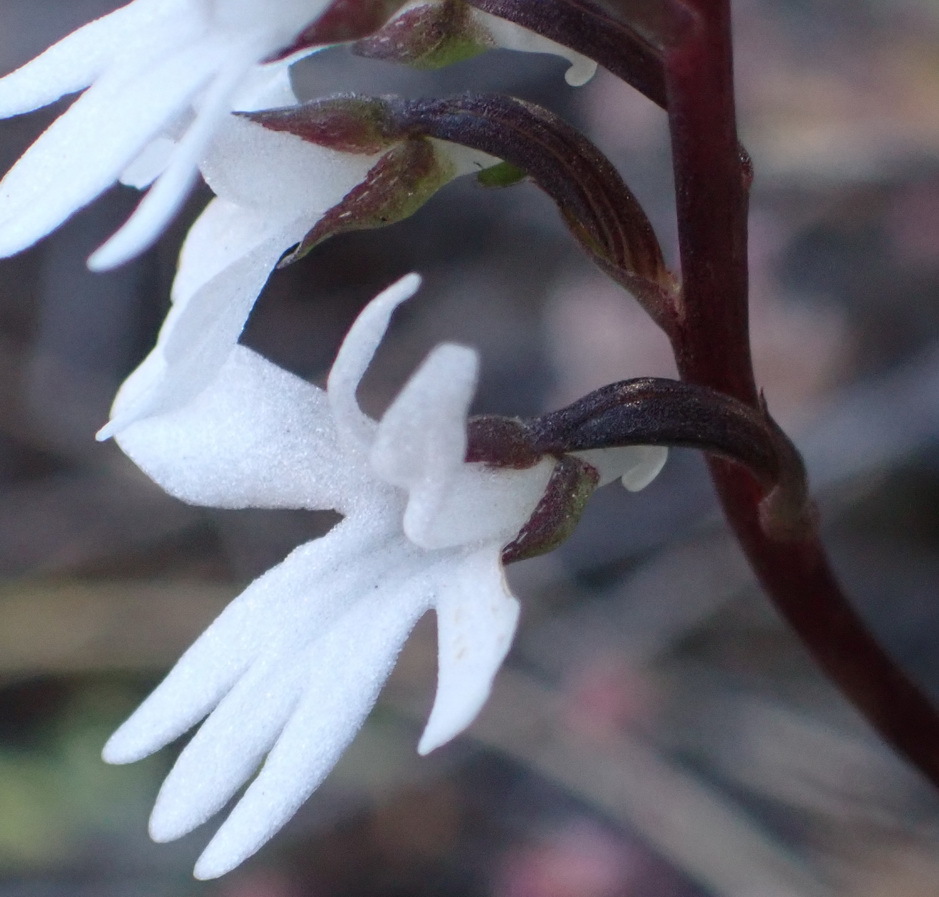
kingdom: Plantae
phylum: Tracheophyta
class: Liliopsida
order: Asparagales
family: Orchidaceae
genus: Holothrix
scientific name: Holothrix parviflora
